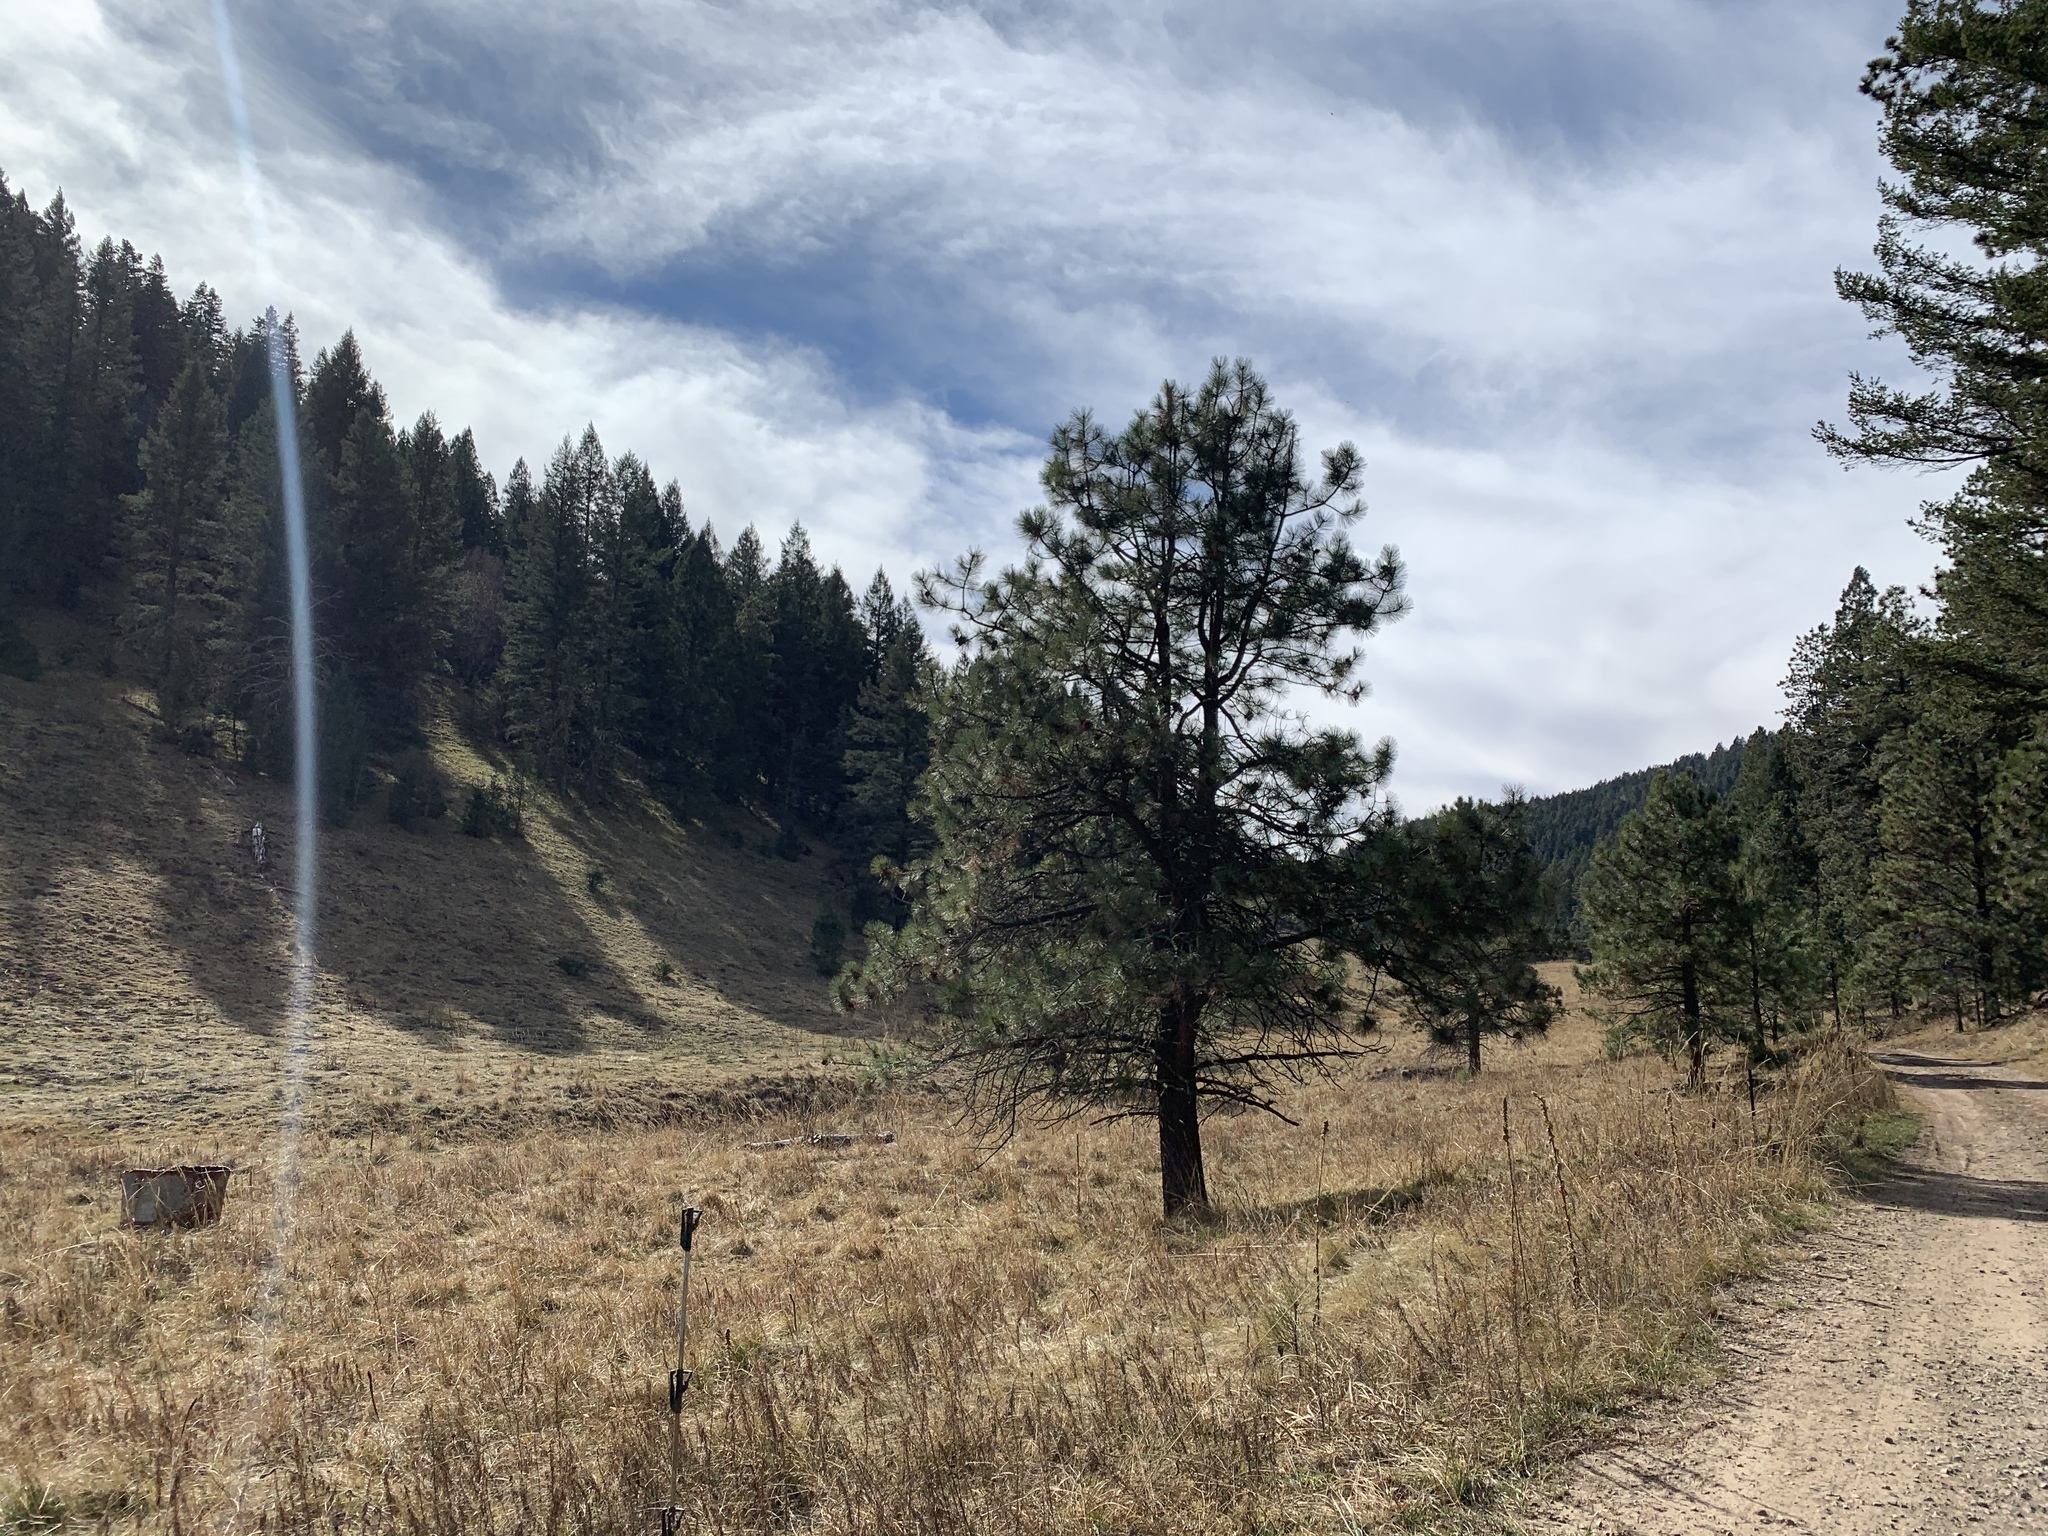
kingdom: Plantae
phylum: Tracheophyta
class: Pinopsida
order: Pinales
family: Pinaceae
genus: Pinus
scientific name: Pinus ponderosa
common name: Western yellow-pine
